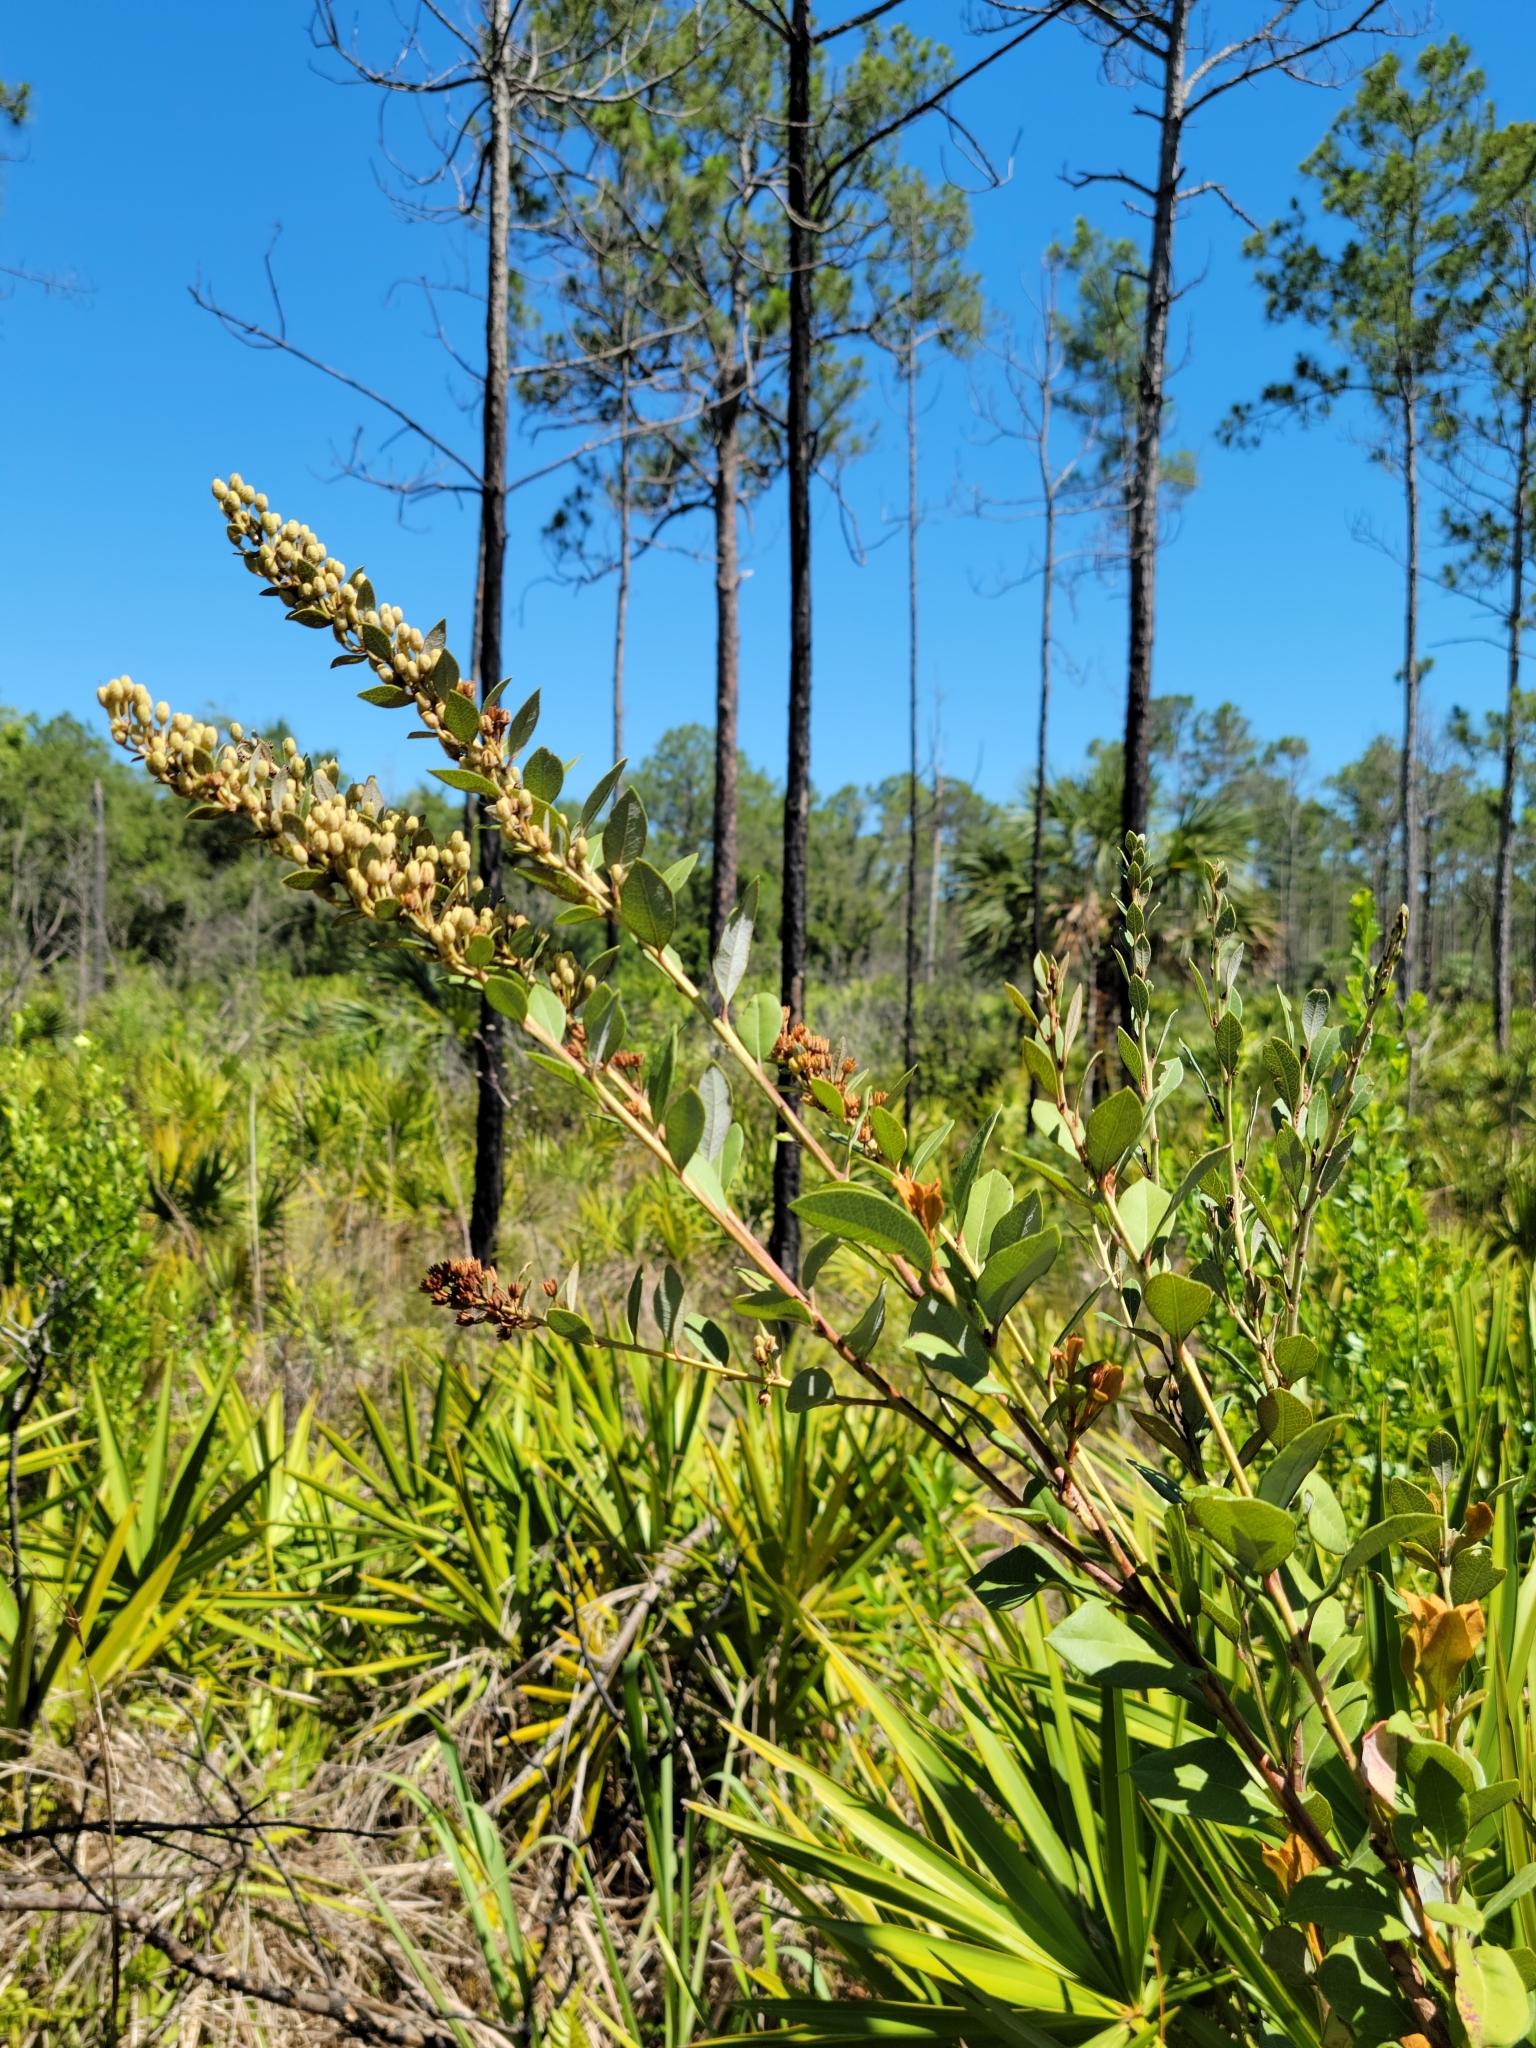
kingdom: Plantae
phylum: Tracheophyta
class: Magnoliopsida
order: Ericales
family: Ericaceae
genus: Lyonia
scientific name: Lyonia fruticosa
